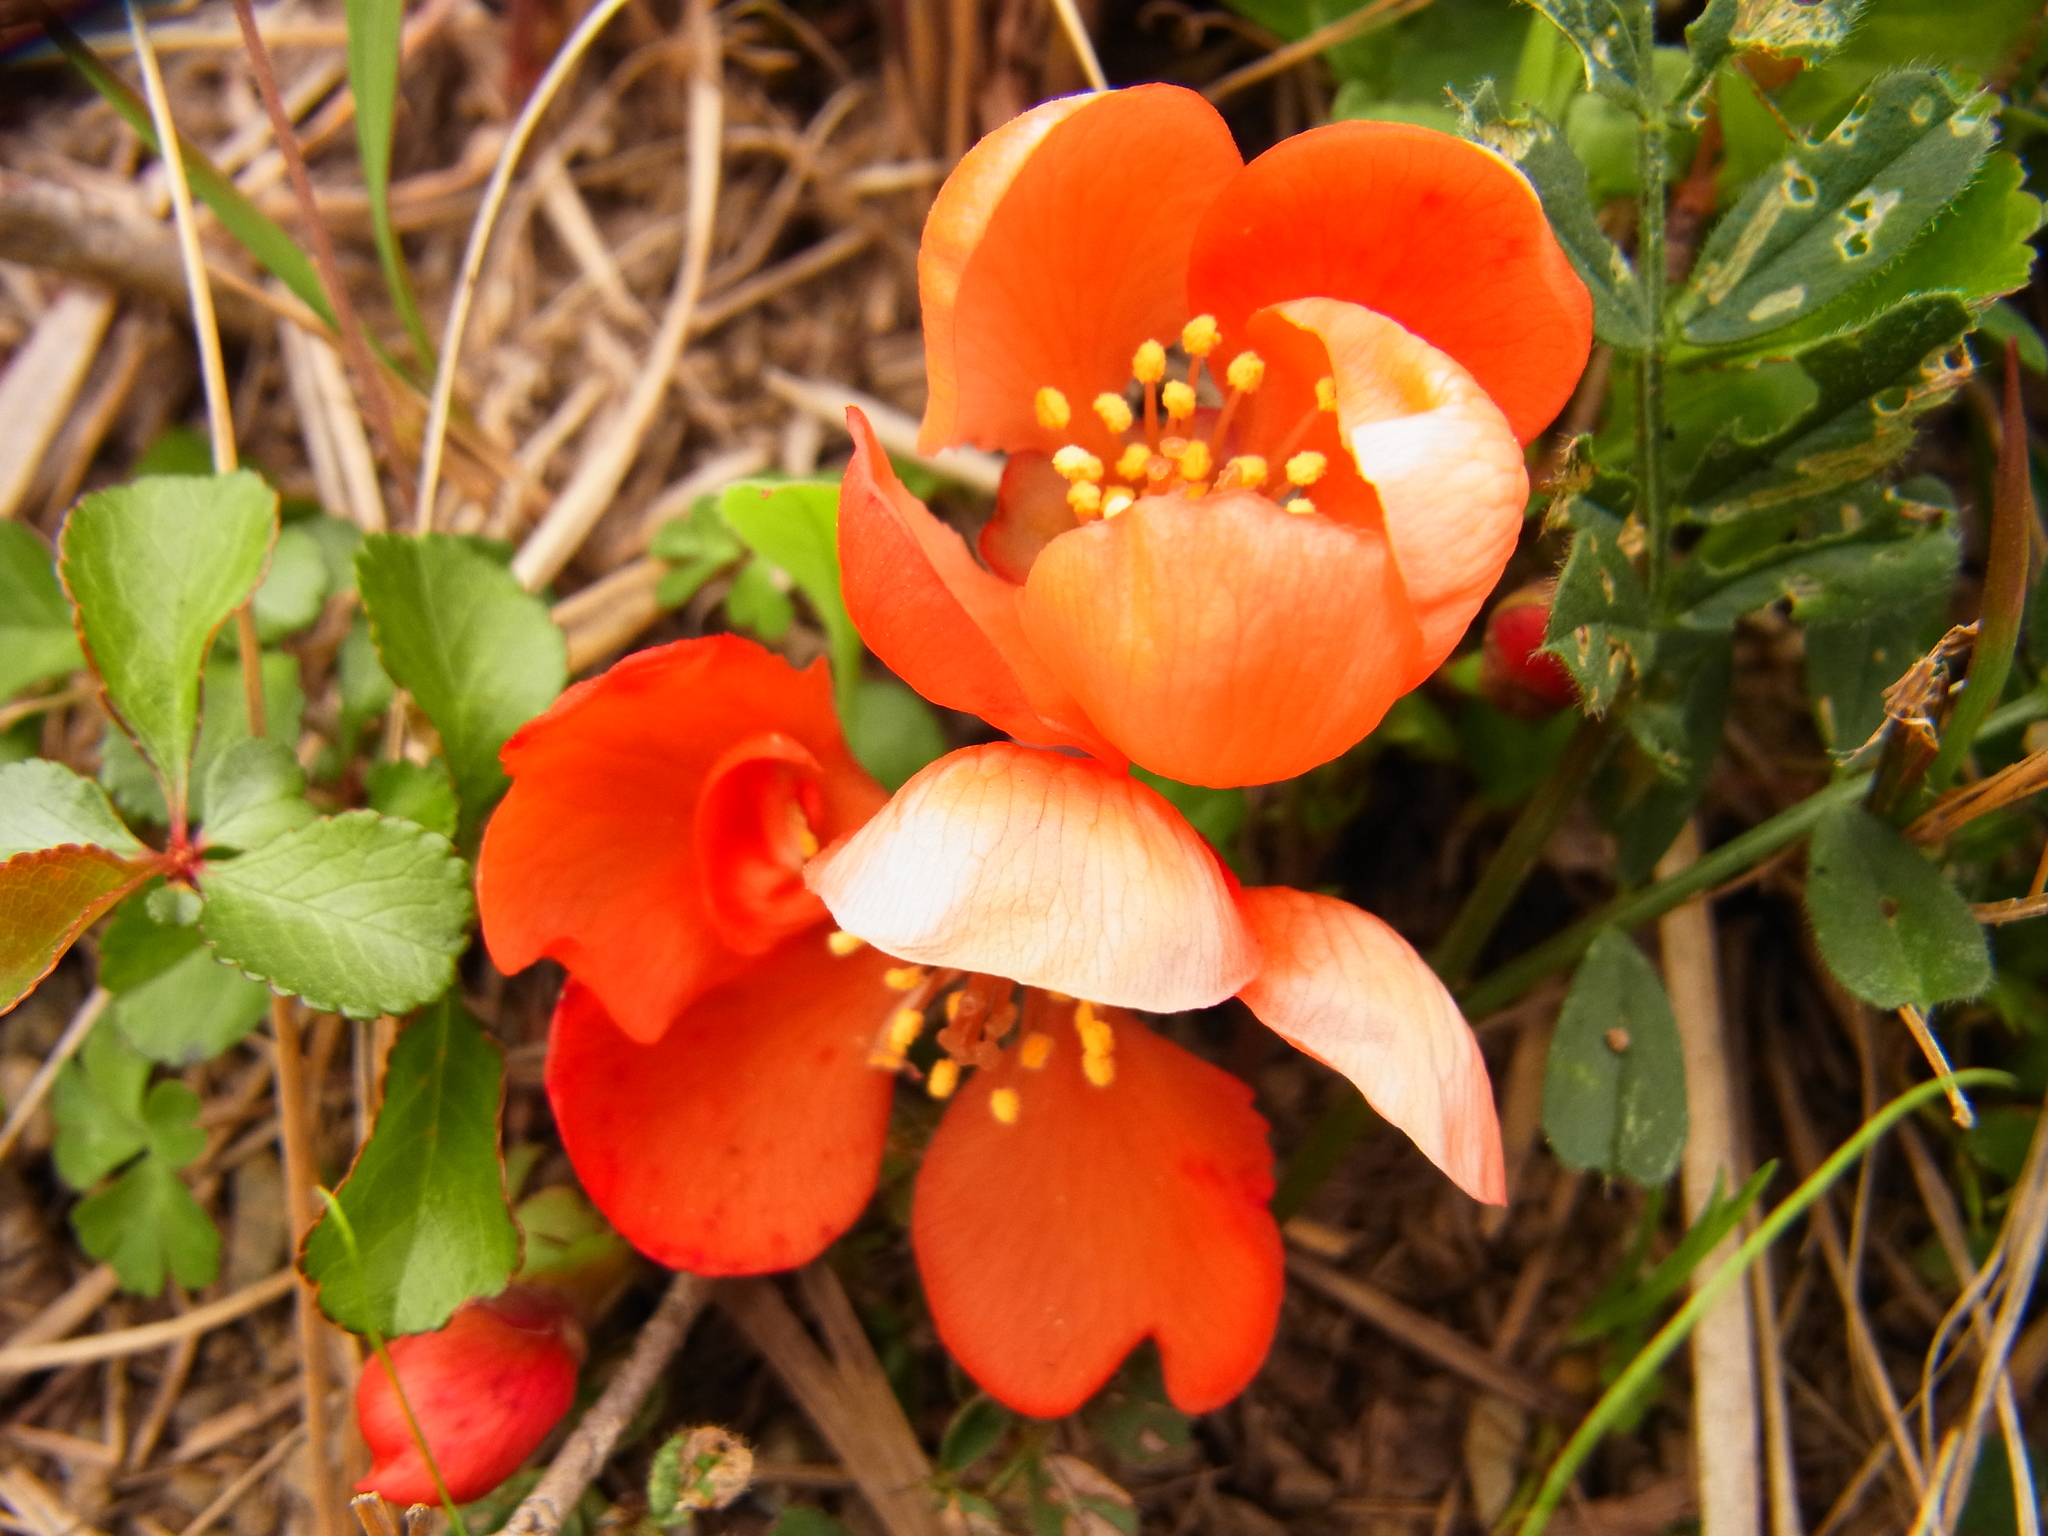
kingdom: Plantae
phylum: Tracheophyta
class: Magnoliopsida
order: Rosales
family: Rosaceae
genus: Chaenomeles
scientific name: Chaenomeles japonica
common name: Japanese quince
